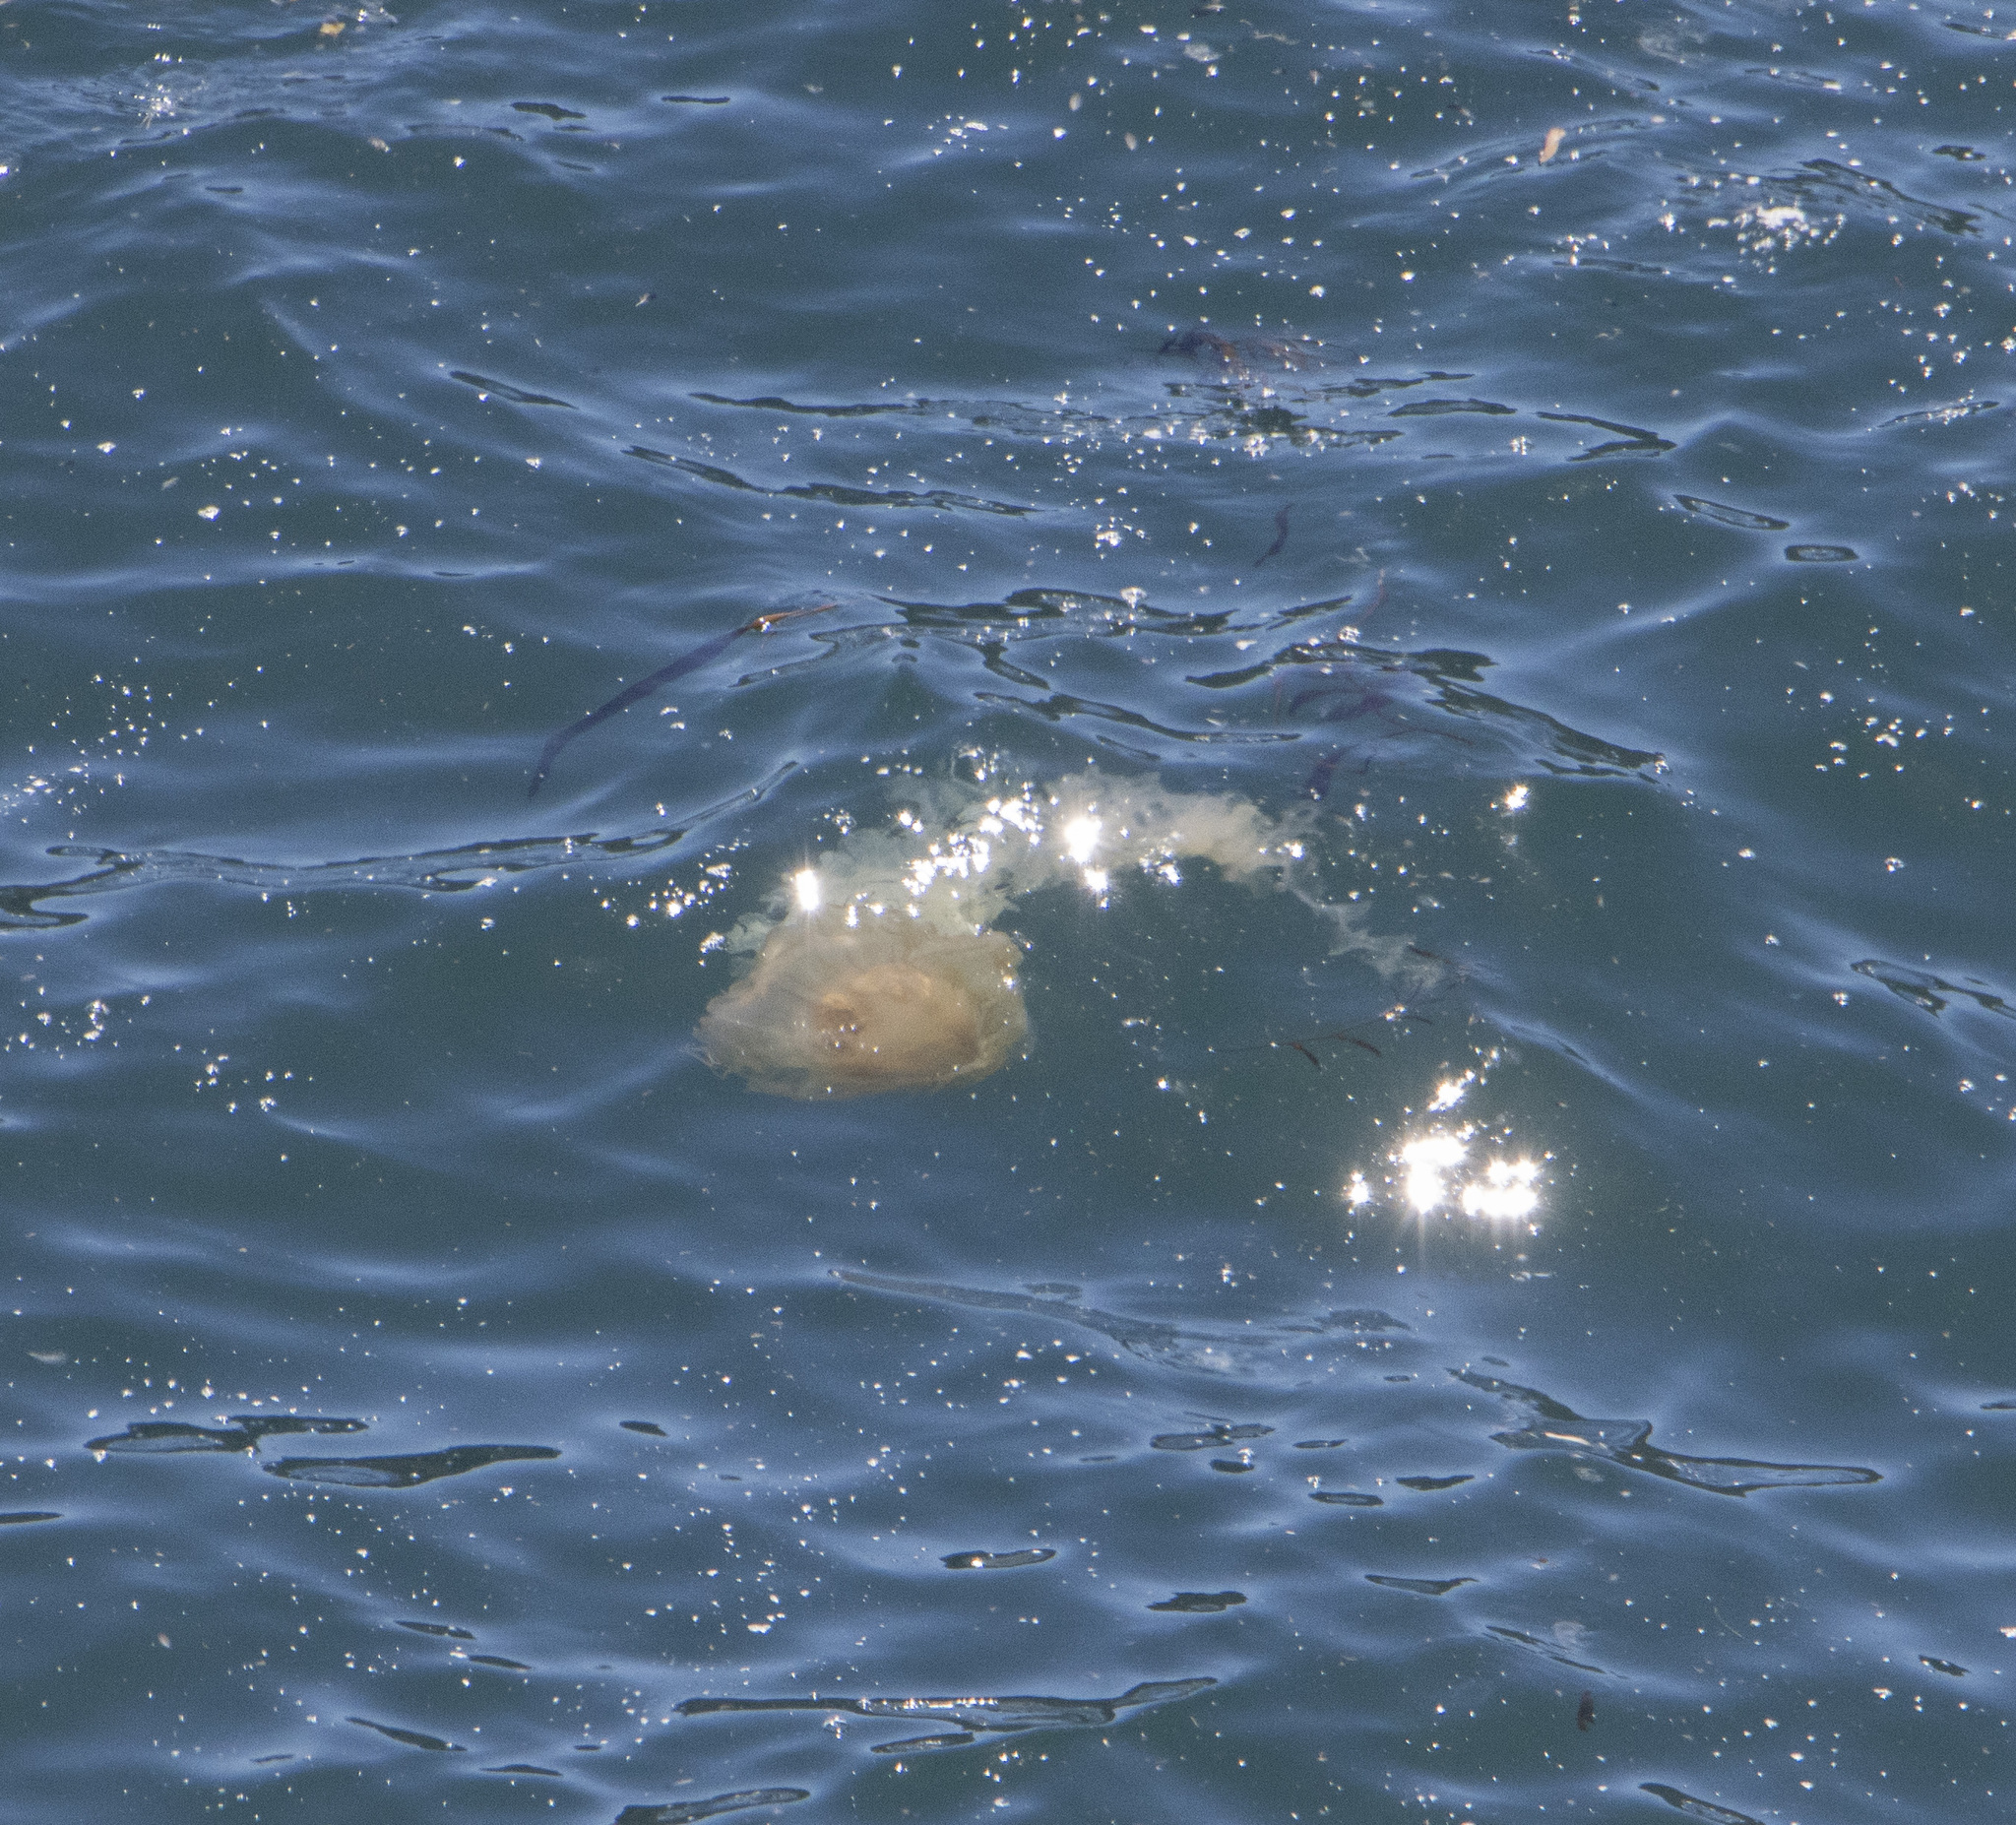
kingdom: Animalia
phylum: Cnidaria
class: Scyphozoa
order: Semaeostomeae
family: Pelagiidae
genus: Chrysaora
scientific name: Chrysaora plocamia
